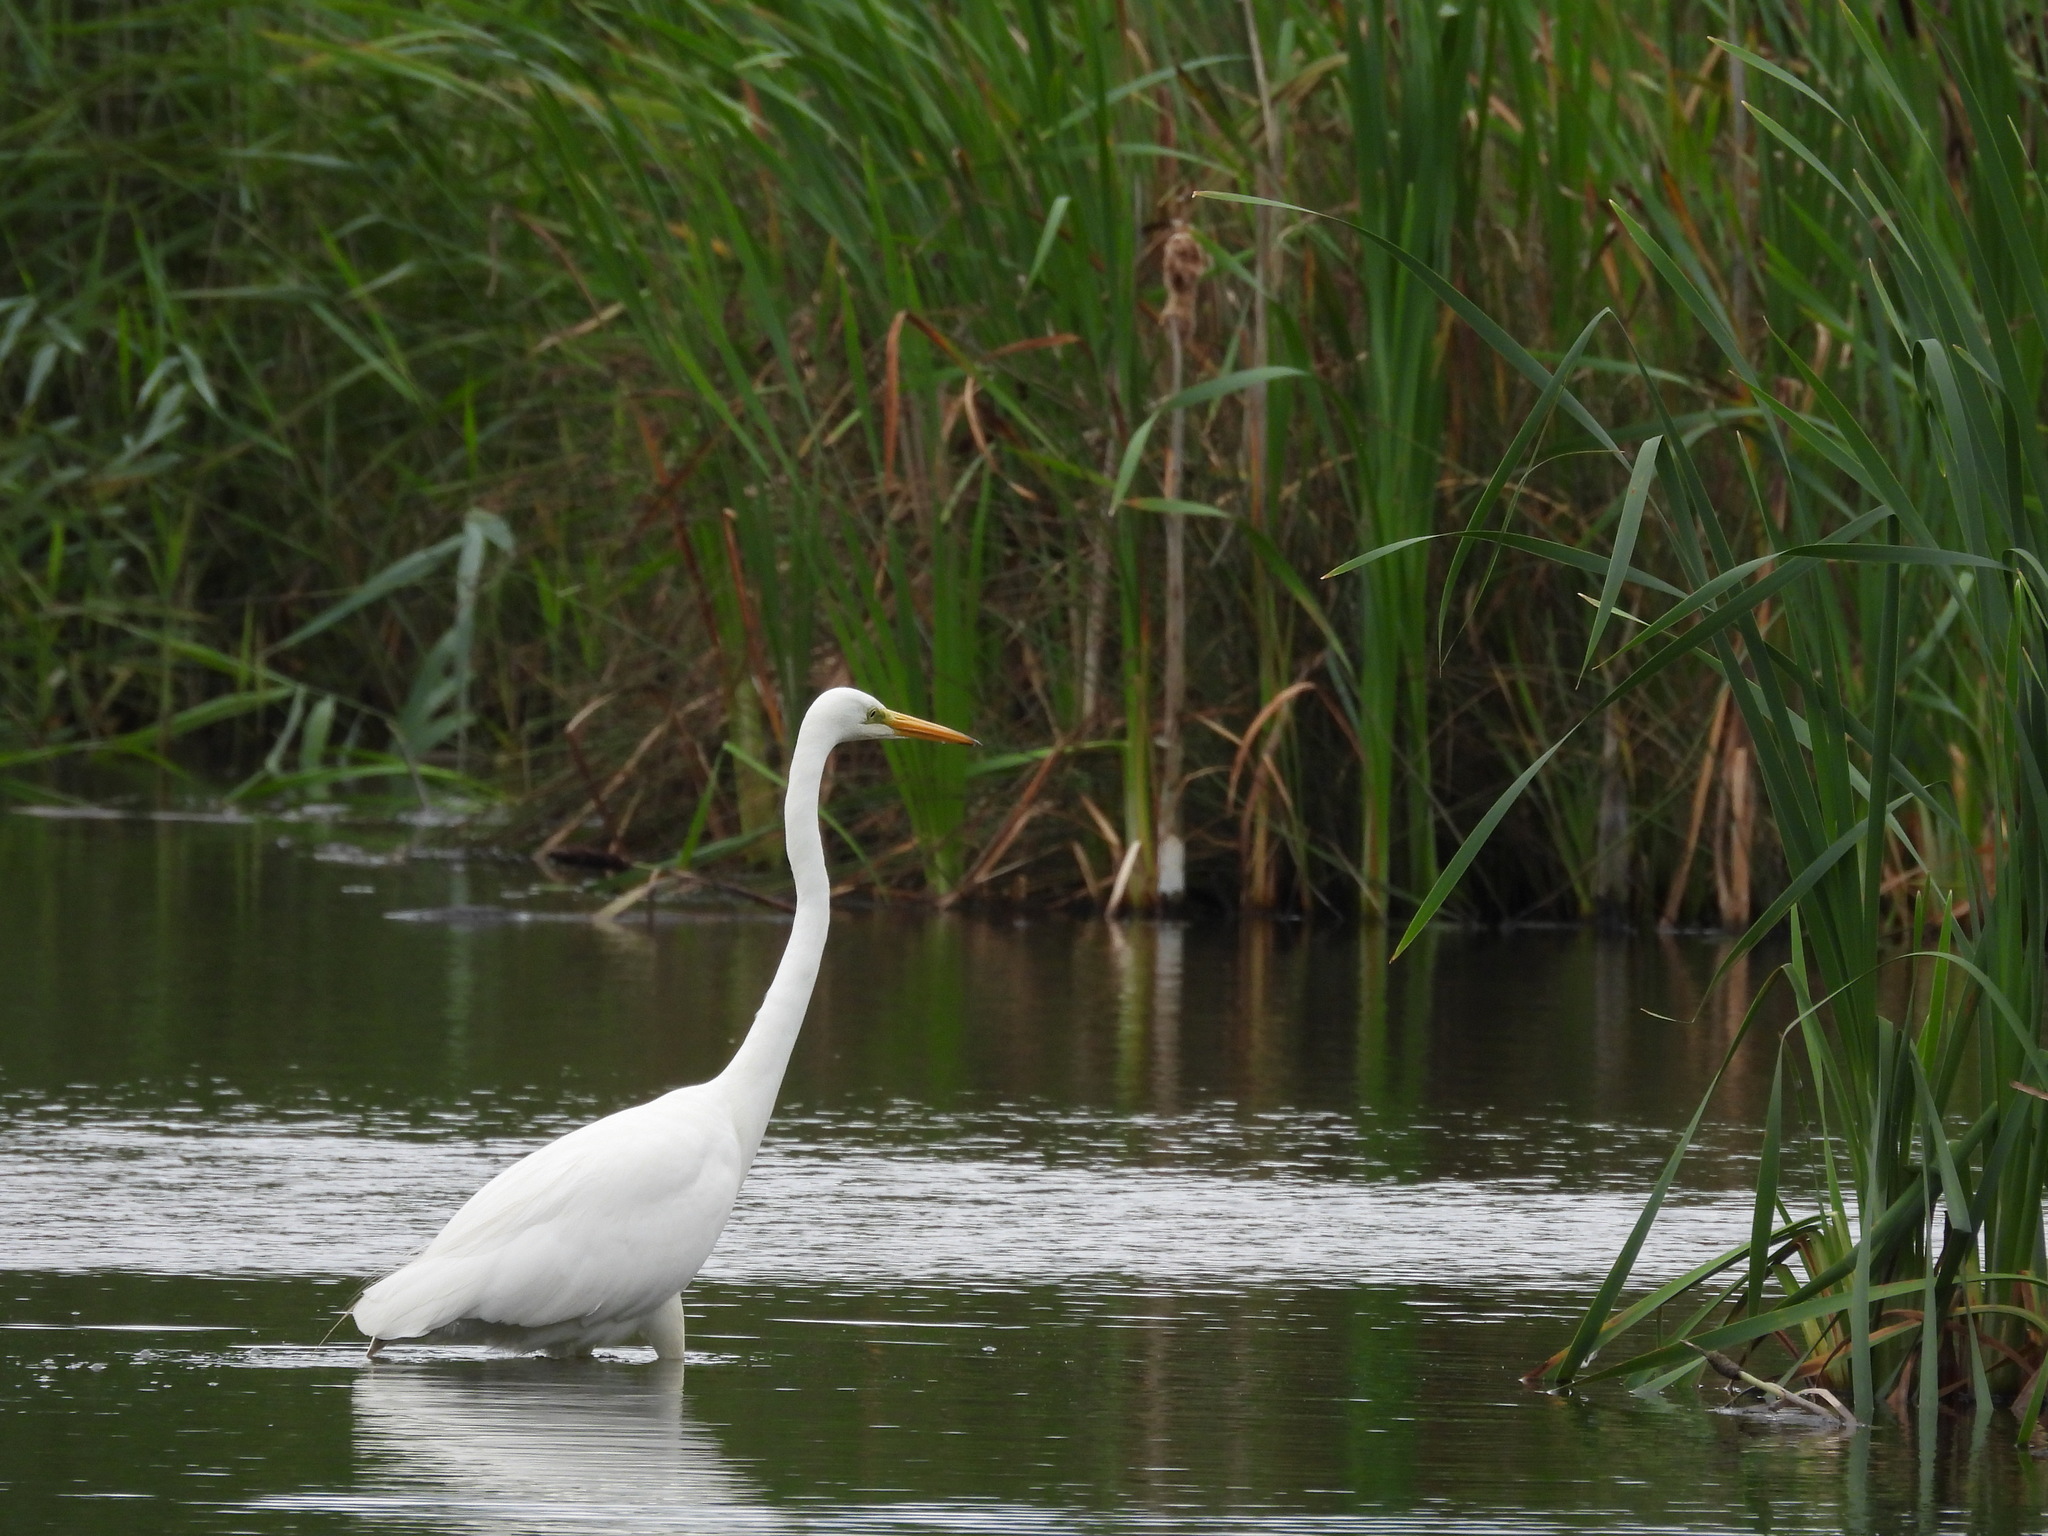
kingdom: Animalia
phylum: Chordata
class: Aves
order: Pelecaniformes
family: Ardeidae
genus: Ardea
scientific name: Ardea alba
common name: Great egret
